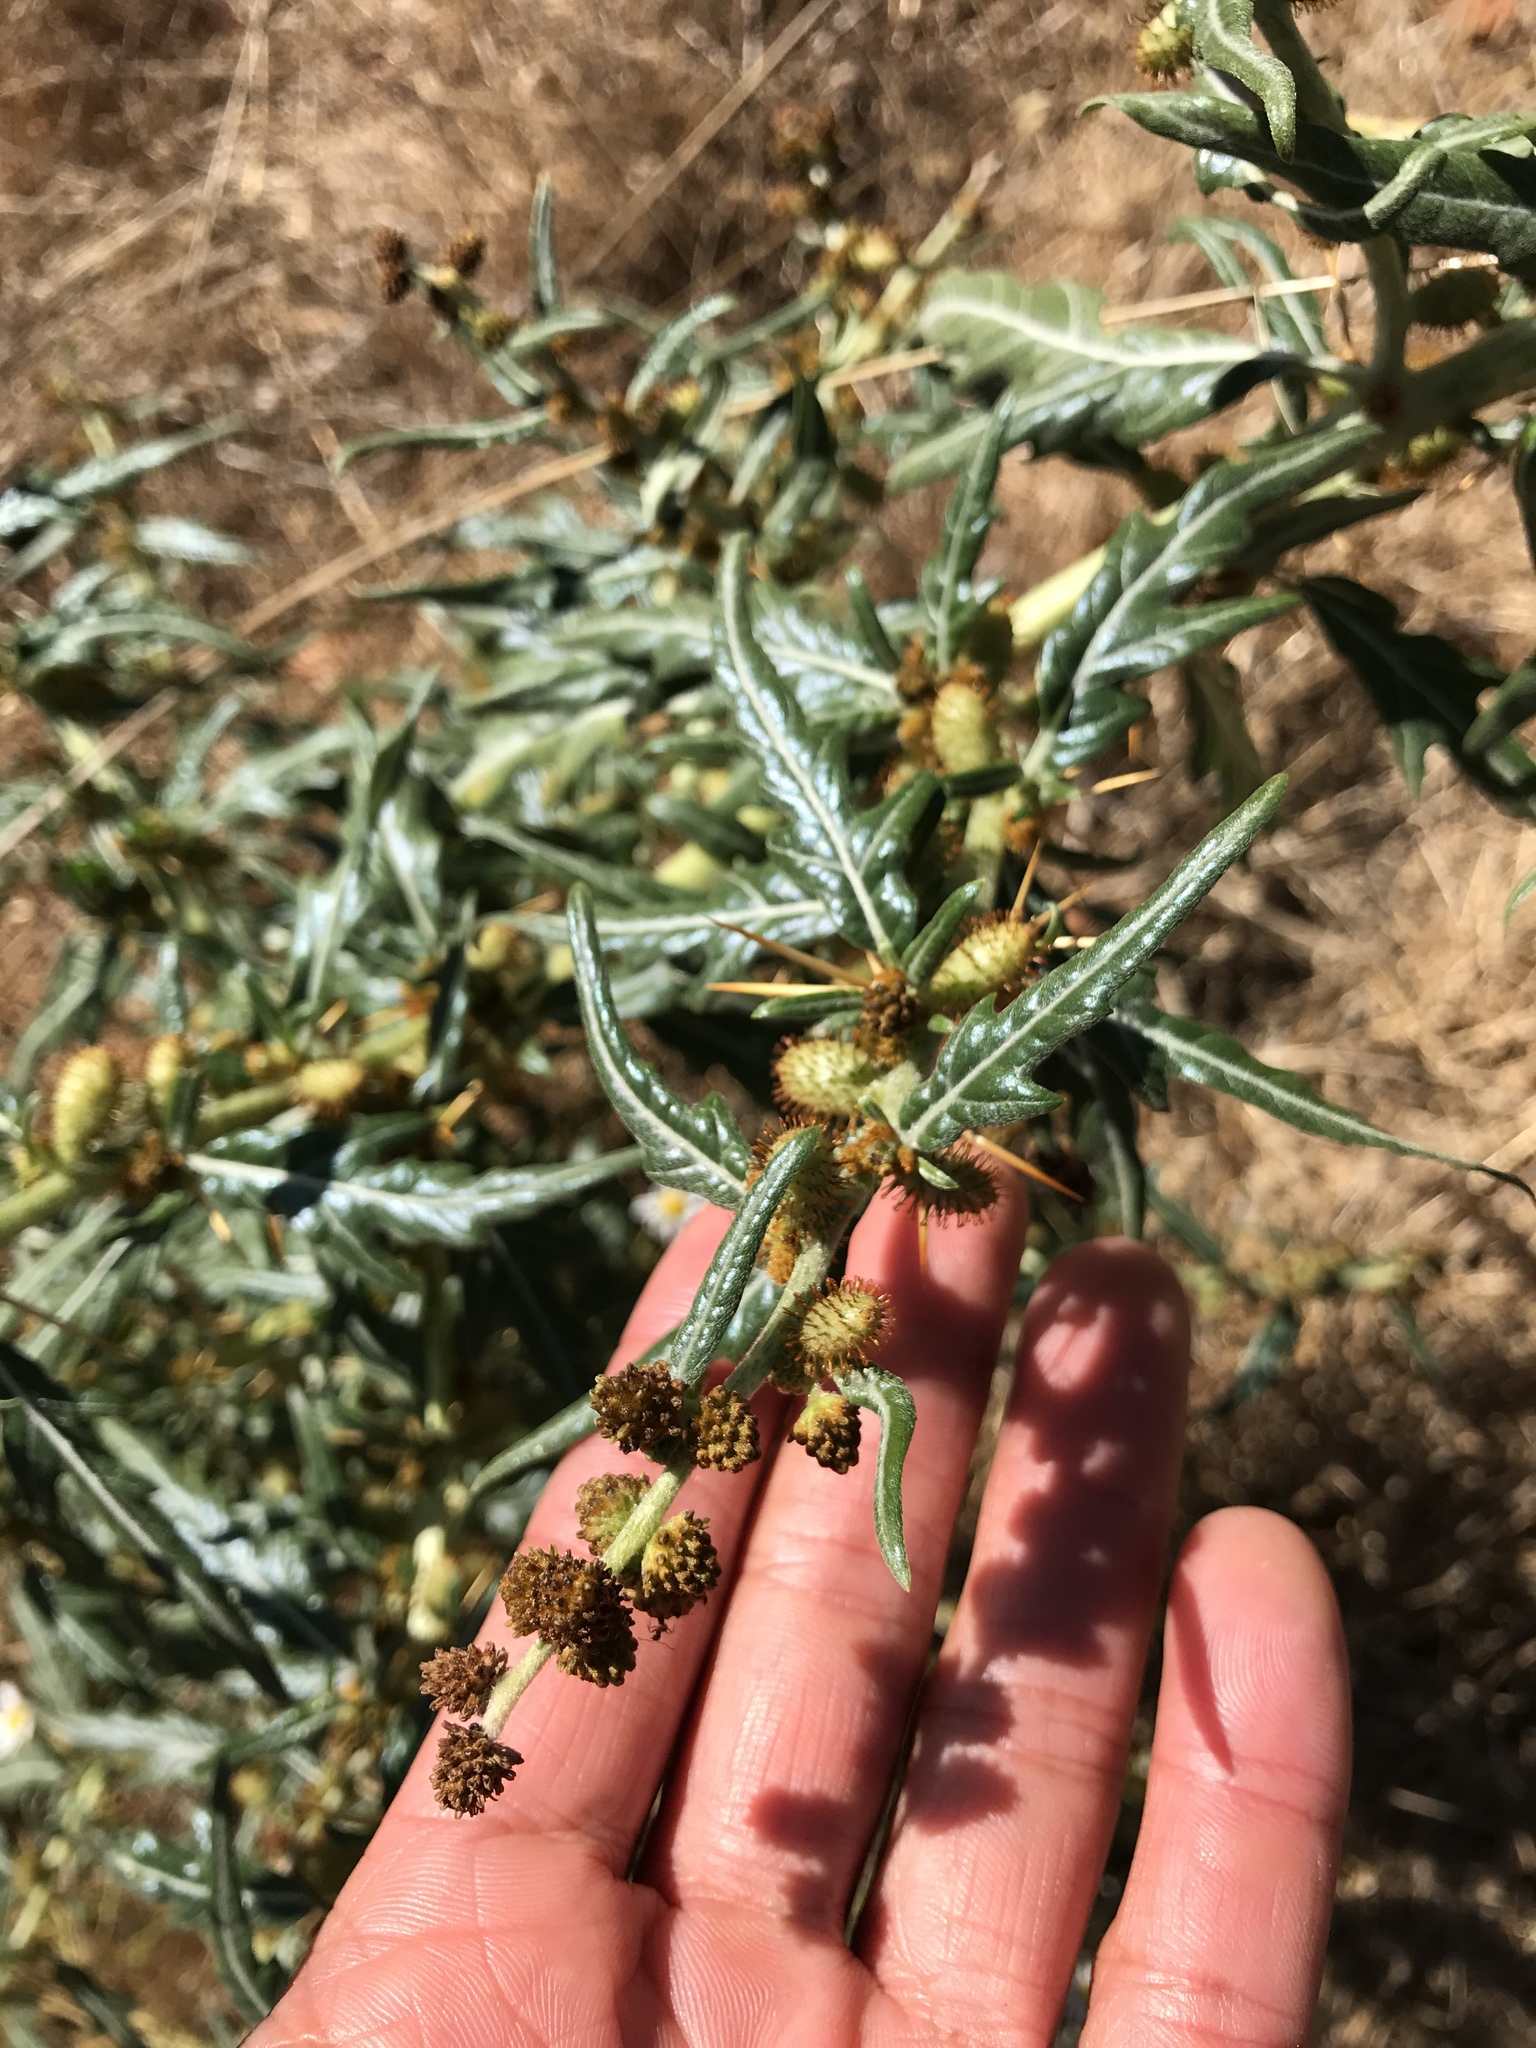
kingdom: Plantae
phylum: Tracheophyta
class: Magnoliopsida
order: Asterales
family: Asteraceae
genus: Xanthium
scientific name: Xanthium spinosum
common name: Spiny cocklebur
